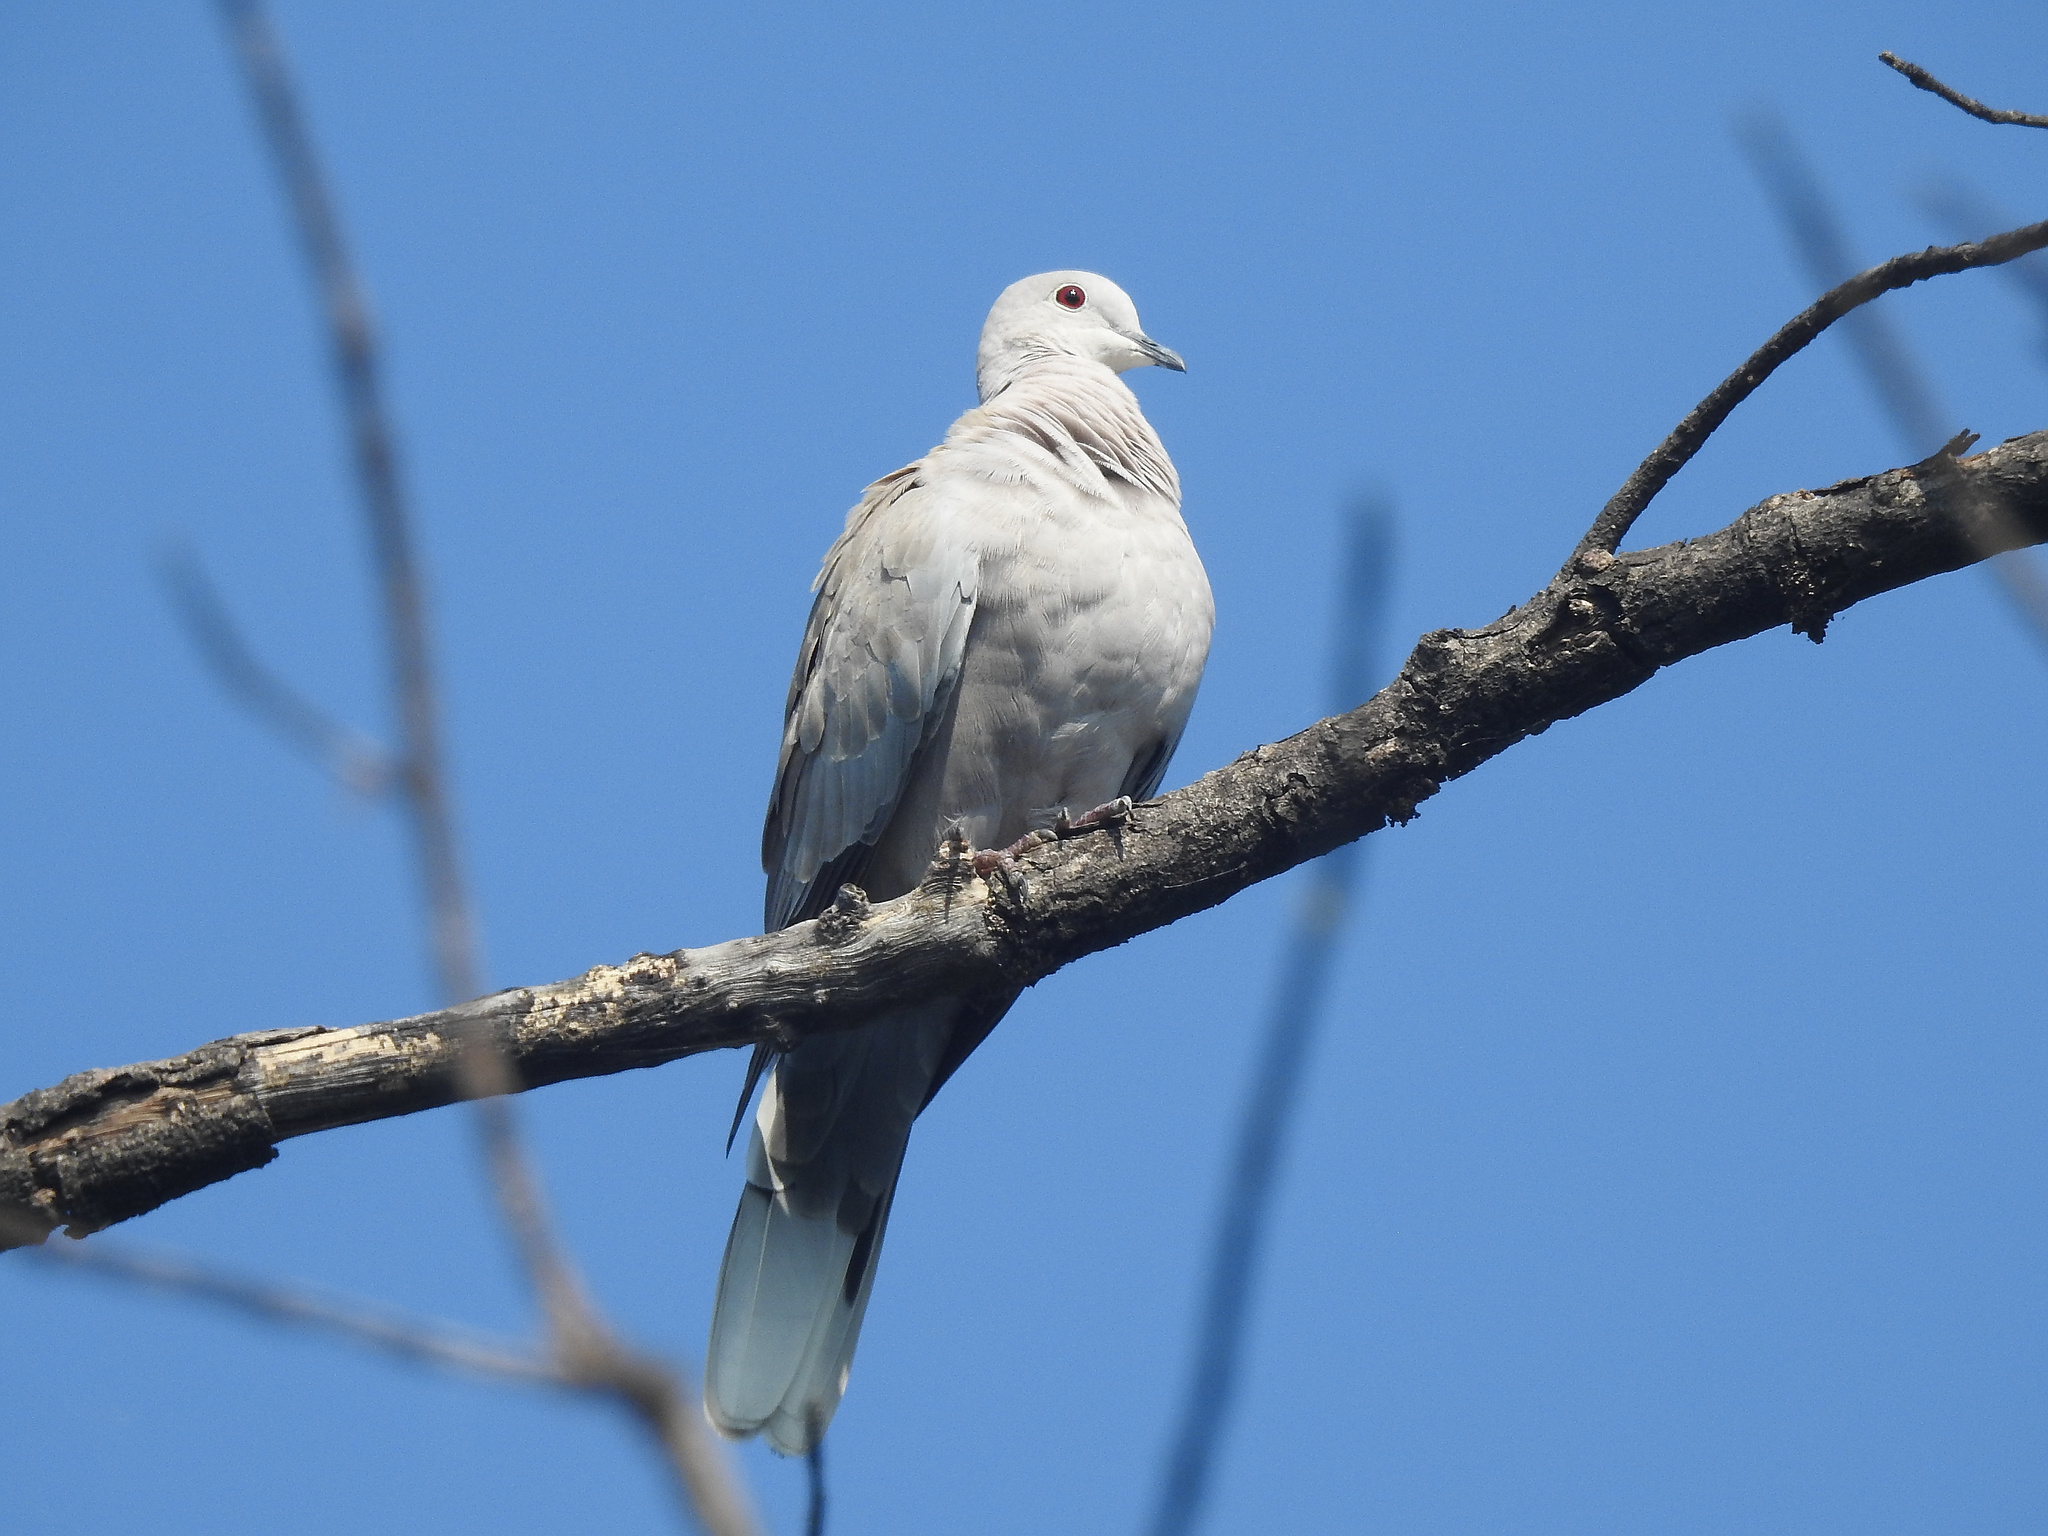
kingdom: Animalia
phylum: Chordata
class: Aves
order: Columbiformes
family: Columbidae
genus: Streptopelia
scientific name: Streptopelia decaocto
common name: Eurasian collared dove
